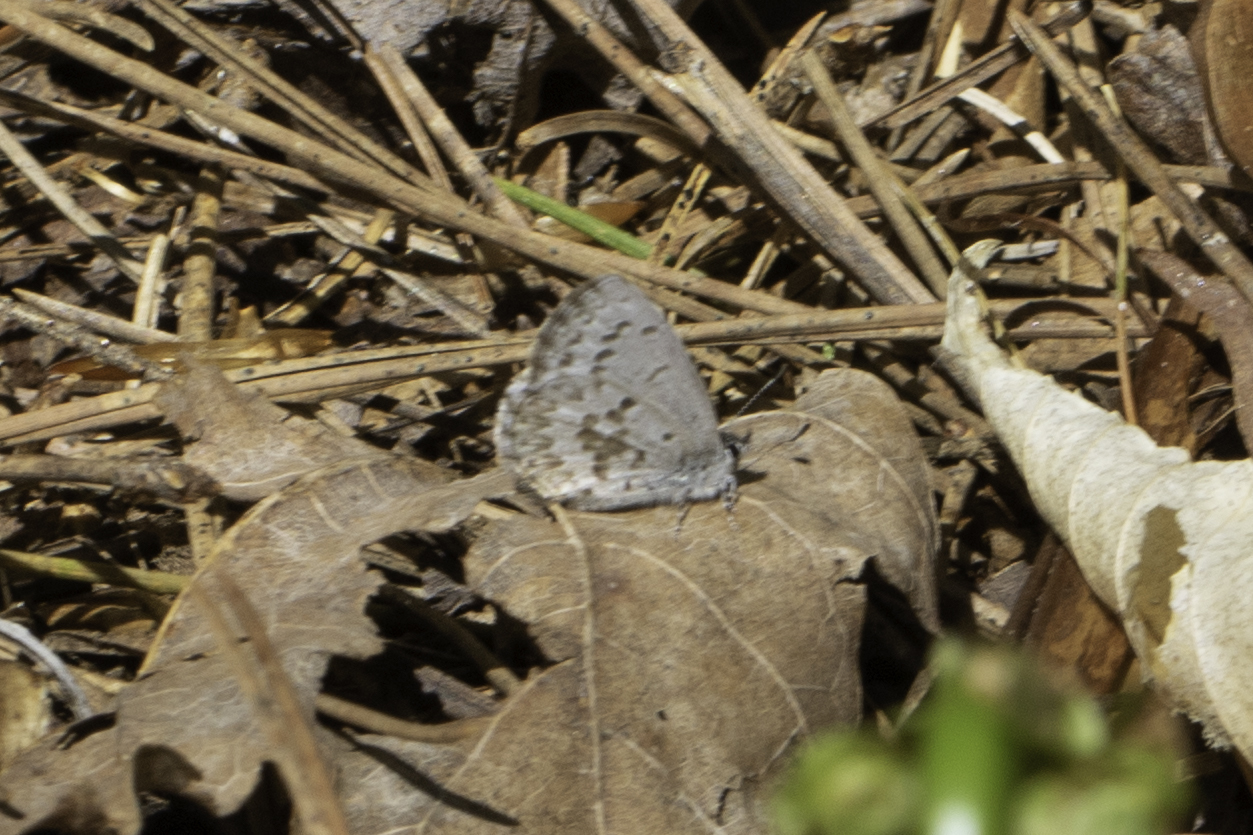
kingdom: Animalia
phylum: Arthropoda
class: Insecta
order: Lepidoptera
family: Lycaenidae
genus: Celastrina
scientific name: Celastrina lucia
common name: Lucia azure
